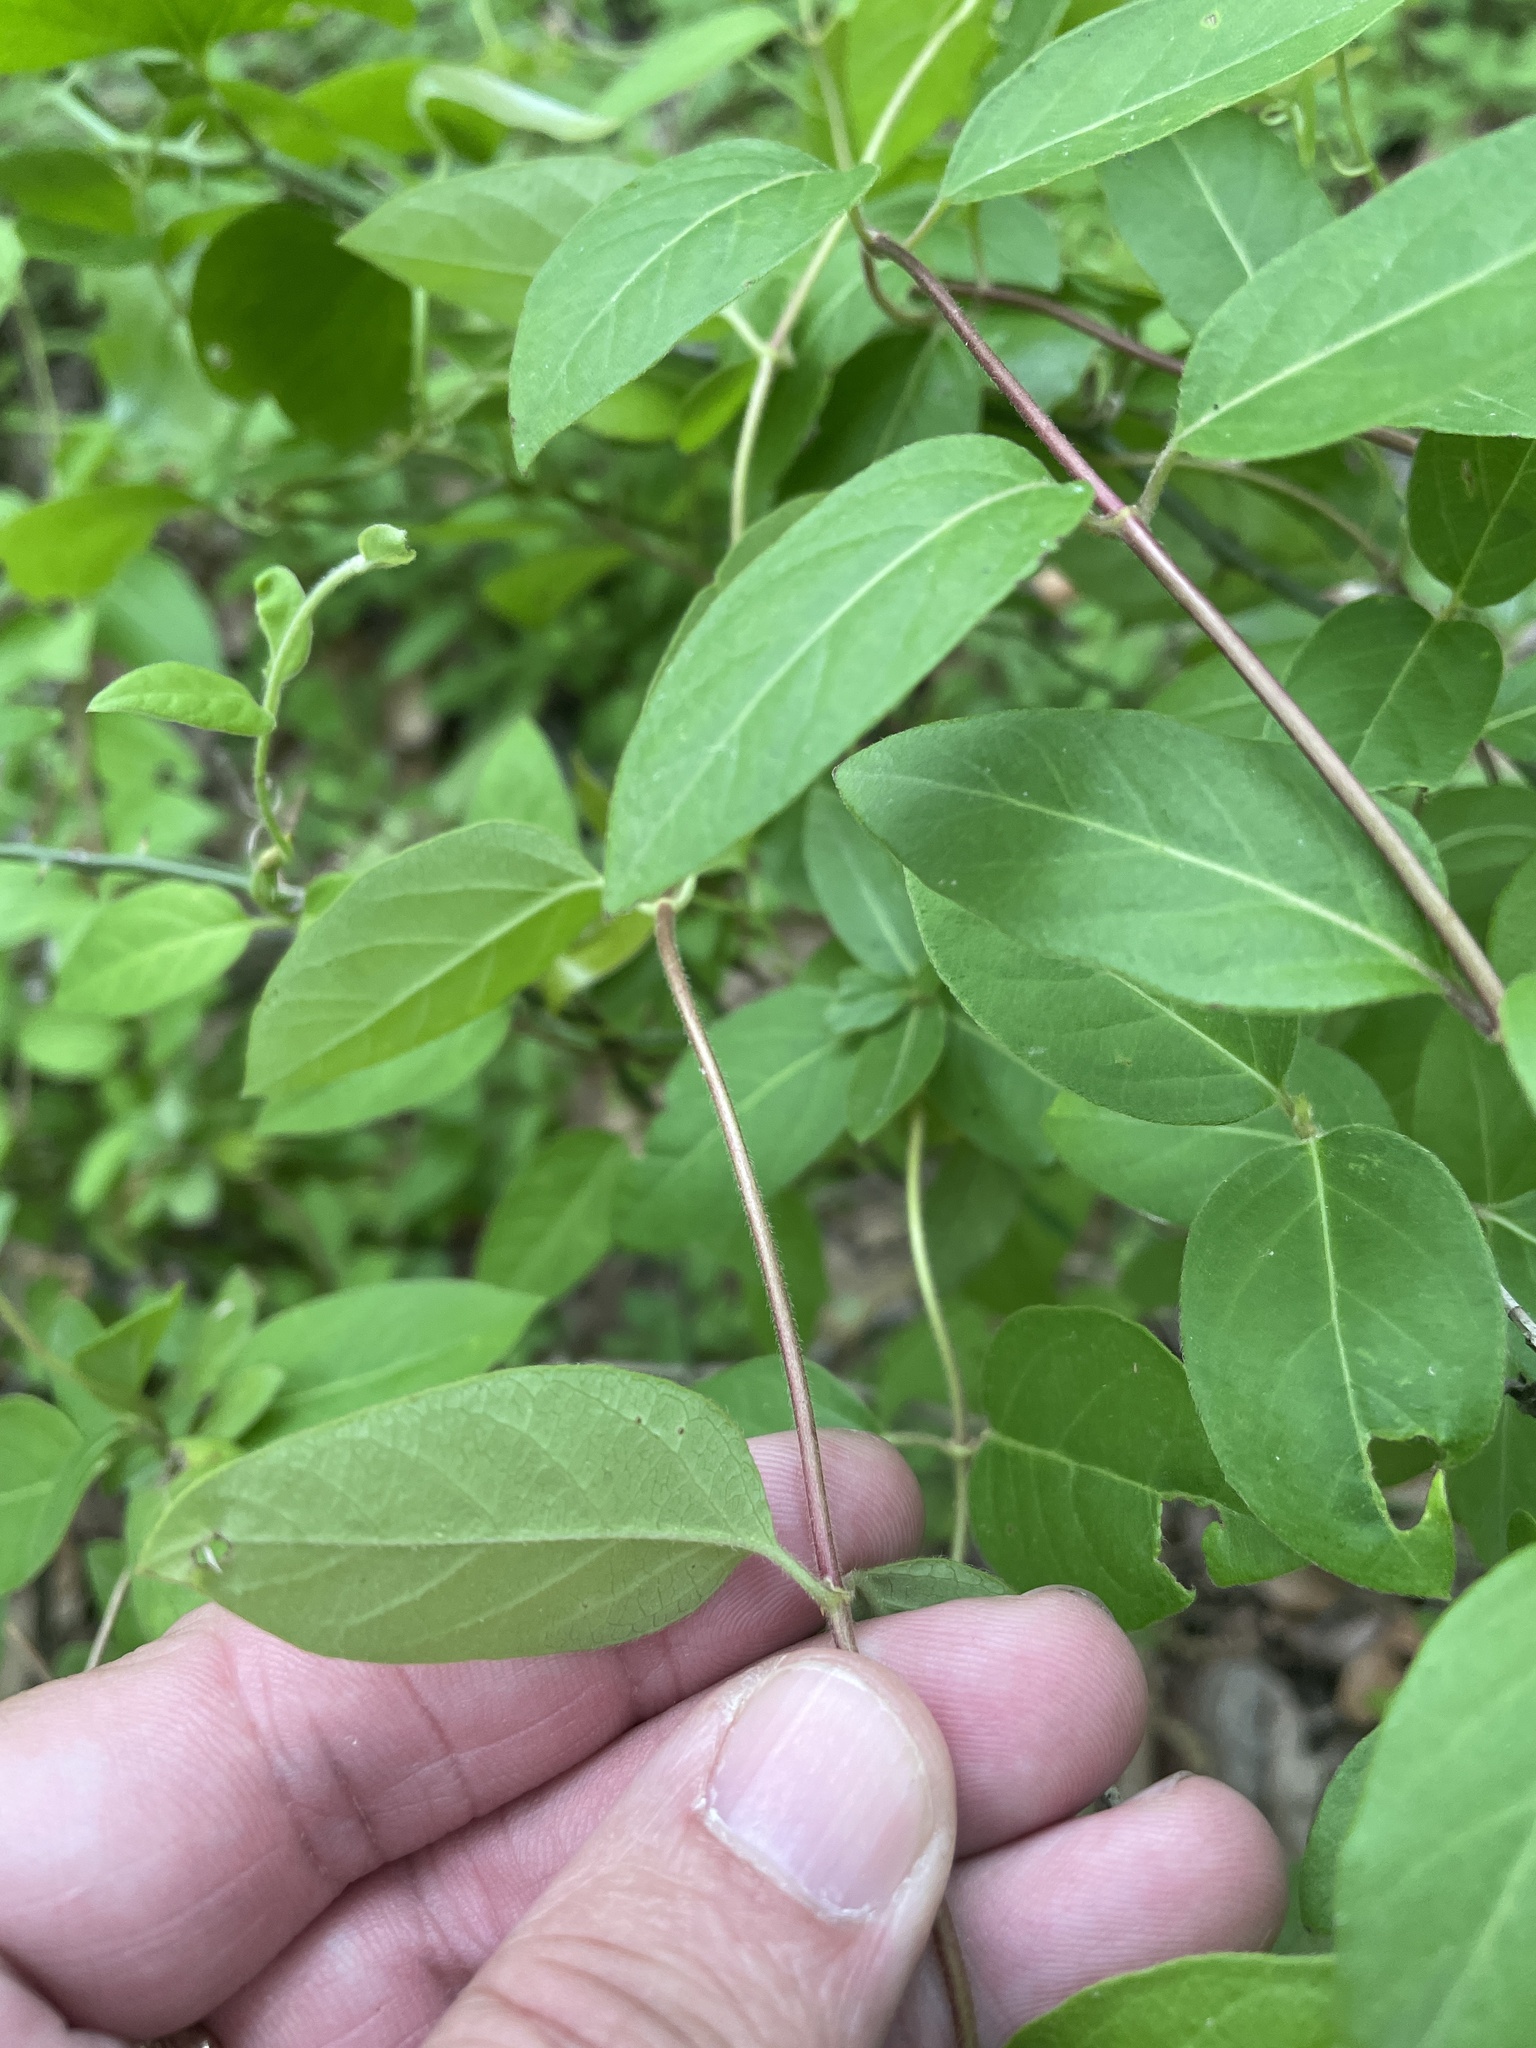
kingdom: Plantae
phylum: Tracheophyta
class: Magnoliopsida
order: Dipsacales
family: Caprifoliaceae
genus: Lonicera
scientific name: Lonicera japonica
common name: Japanese honeysuckle
